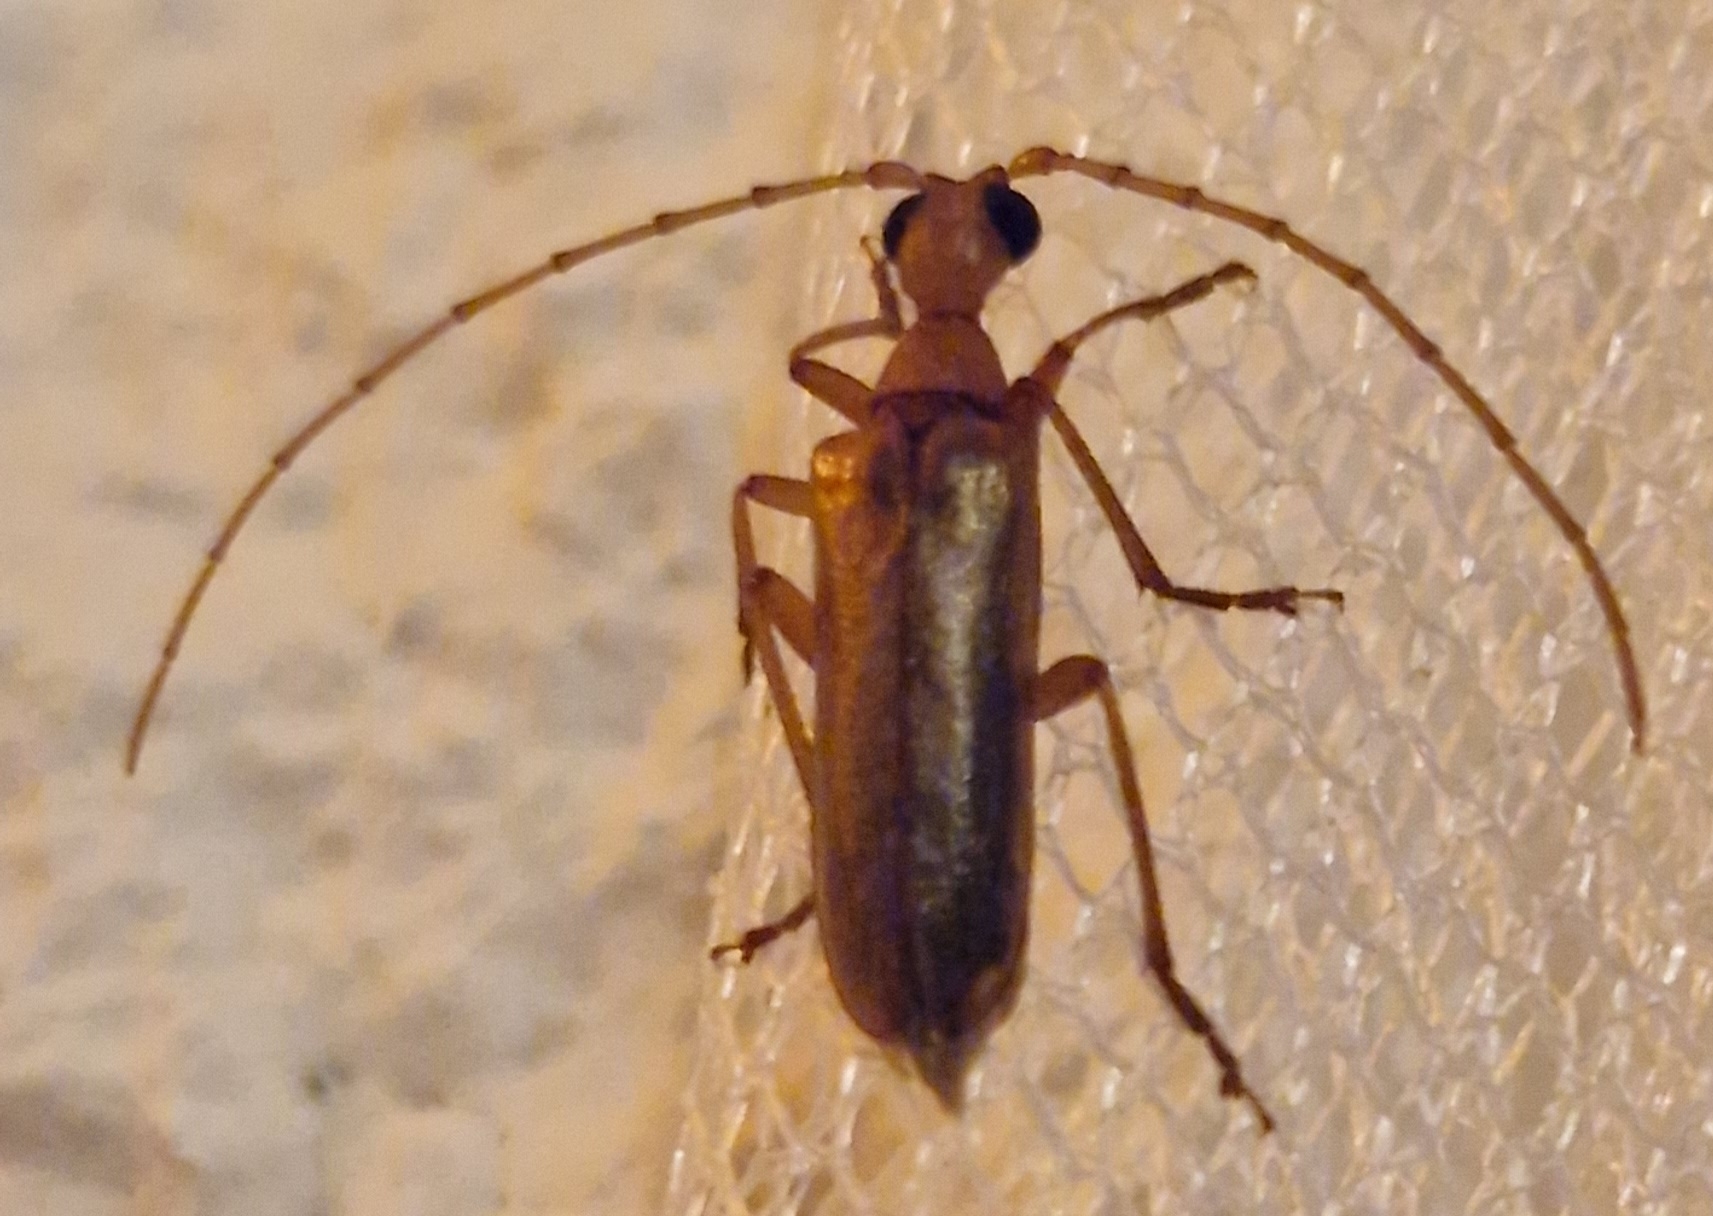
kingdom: Animalia
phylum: Arthropoda
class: Insecta
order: Coleoptera
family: Cerambycidae
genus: Vesperus
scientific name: Vesperus conicicollis
